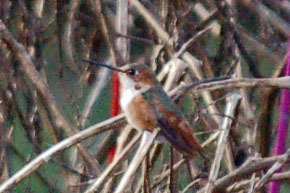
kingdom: Animalia
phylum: Chordata
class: Aves
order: Apodiformes
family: Trochilidae
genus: Selasphorus
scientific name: Selasphorus sasin
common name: Allen's hummingbird
